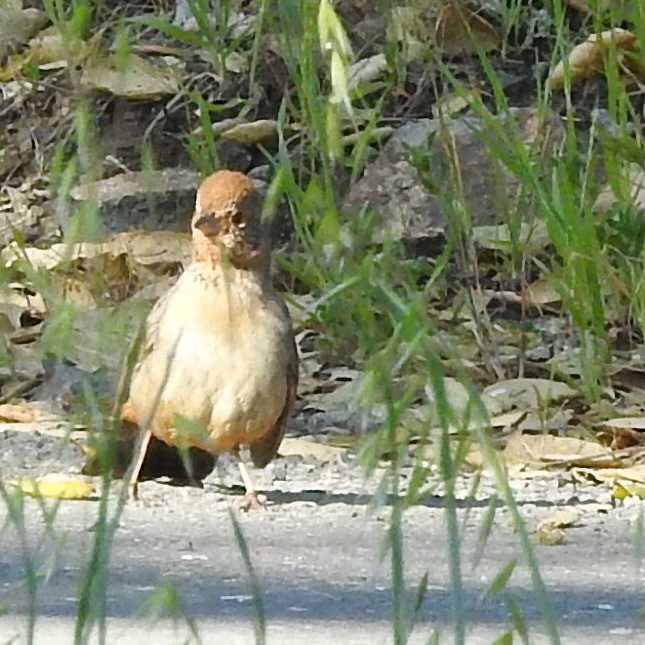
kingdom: Animalia
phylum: Chordata
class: Aves
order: Passeriformes
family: Passerellidae
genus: Melozone
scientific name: Melozone crissalis
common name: California towhee
